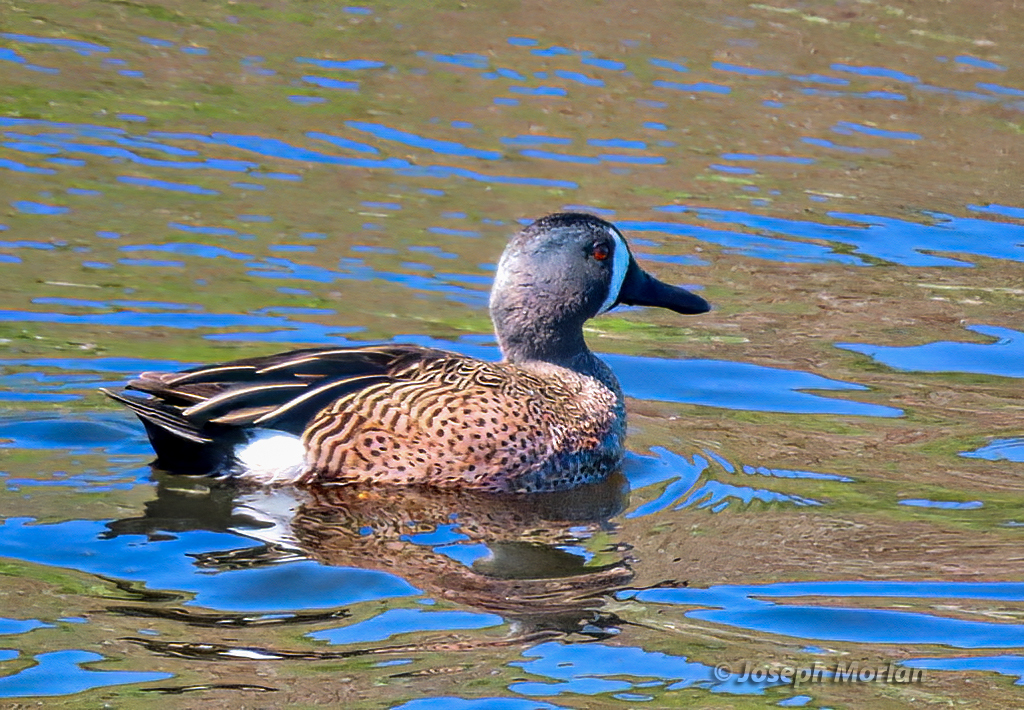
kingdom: Animalia
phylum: Chordata
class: Aves
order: Anseriformes
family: Anatidae
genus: Spatula
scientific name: Spatula discors
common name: Blue-winged teal
